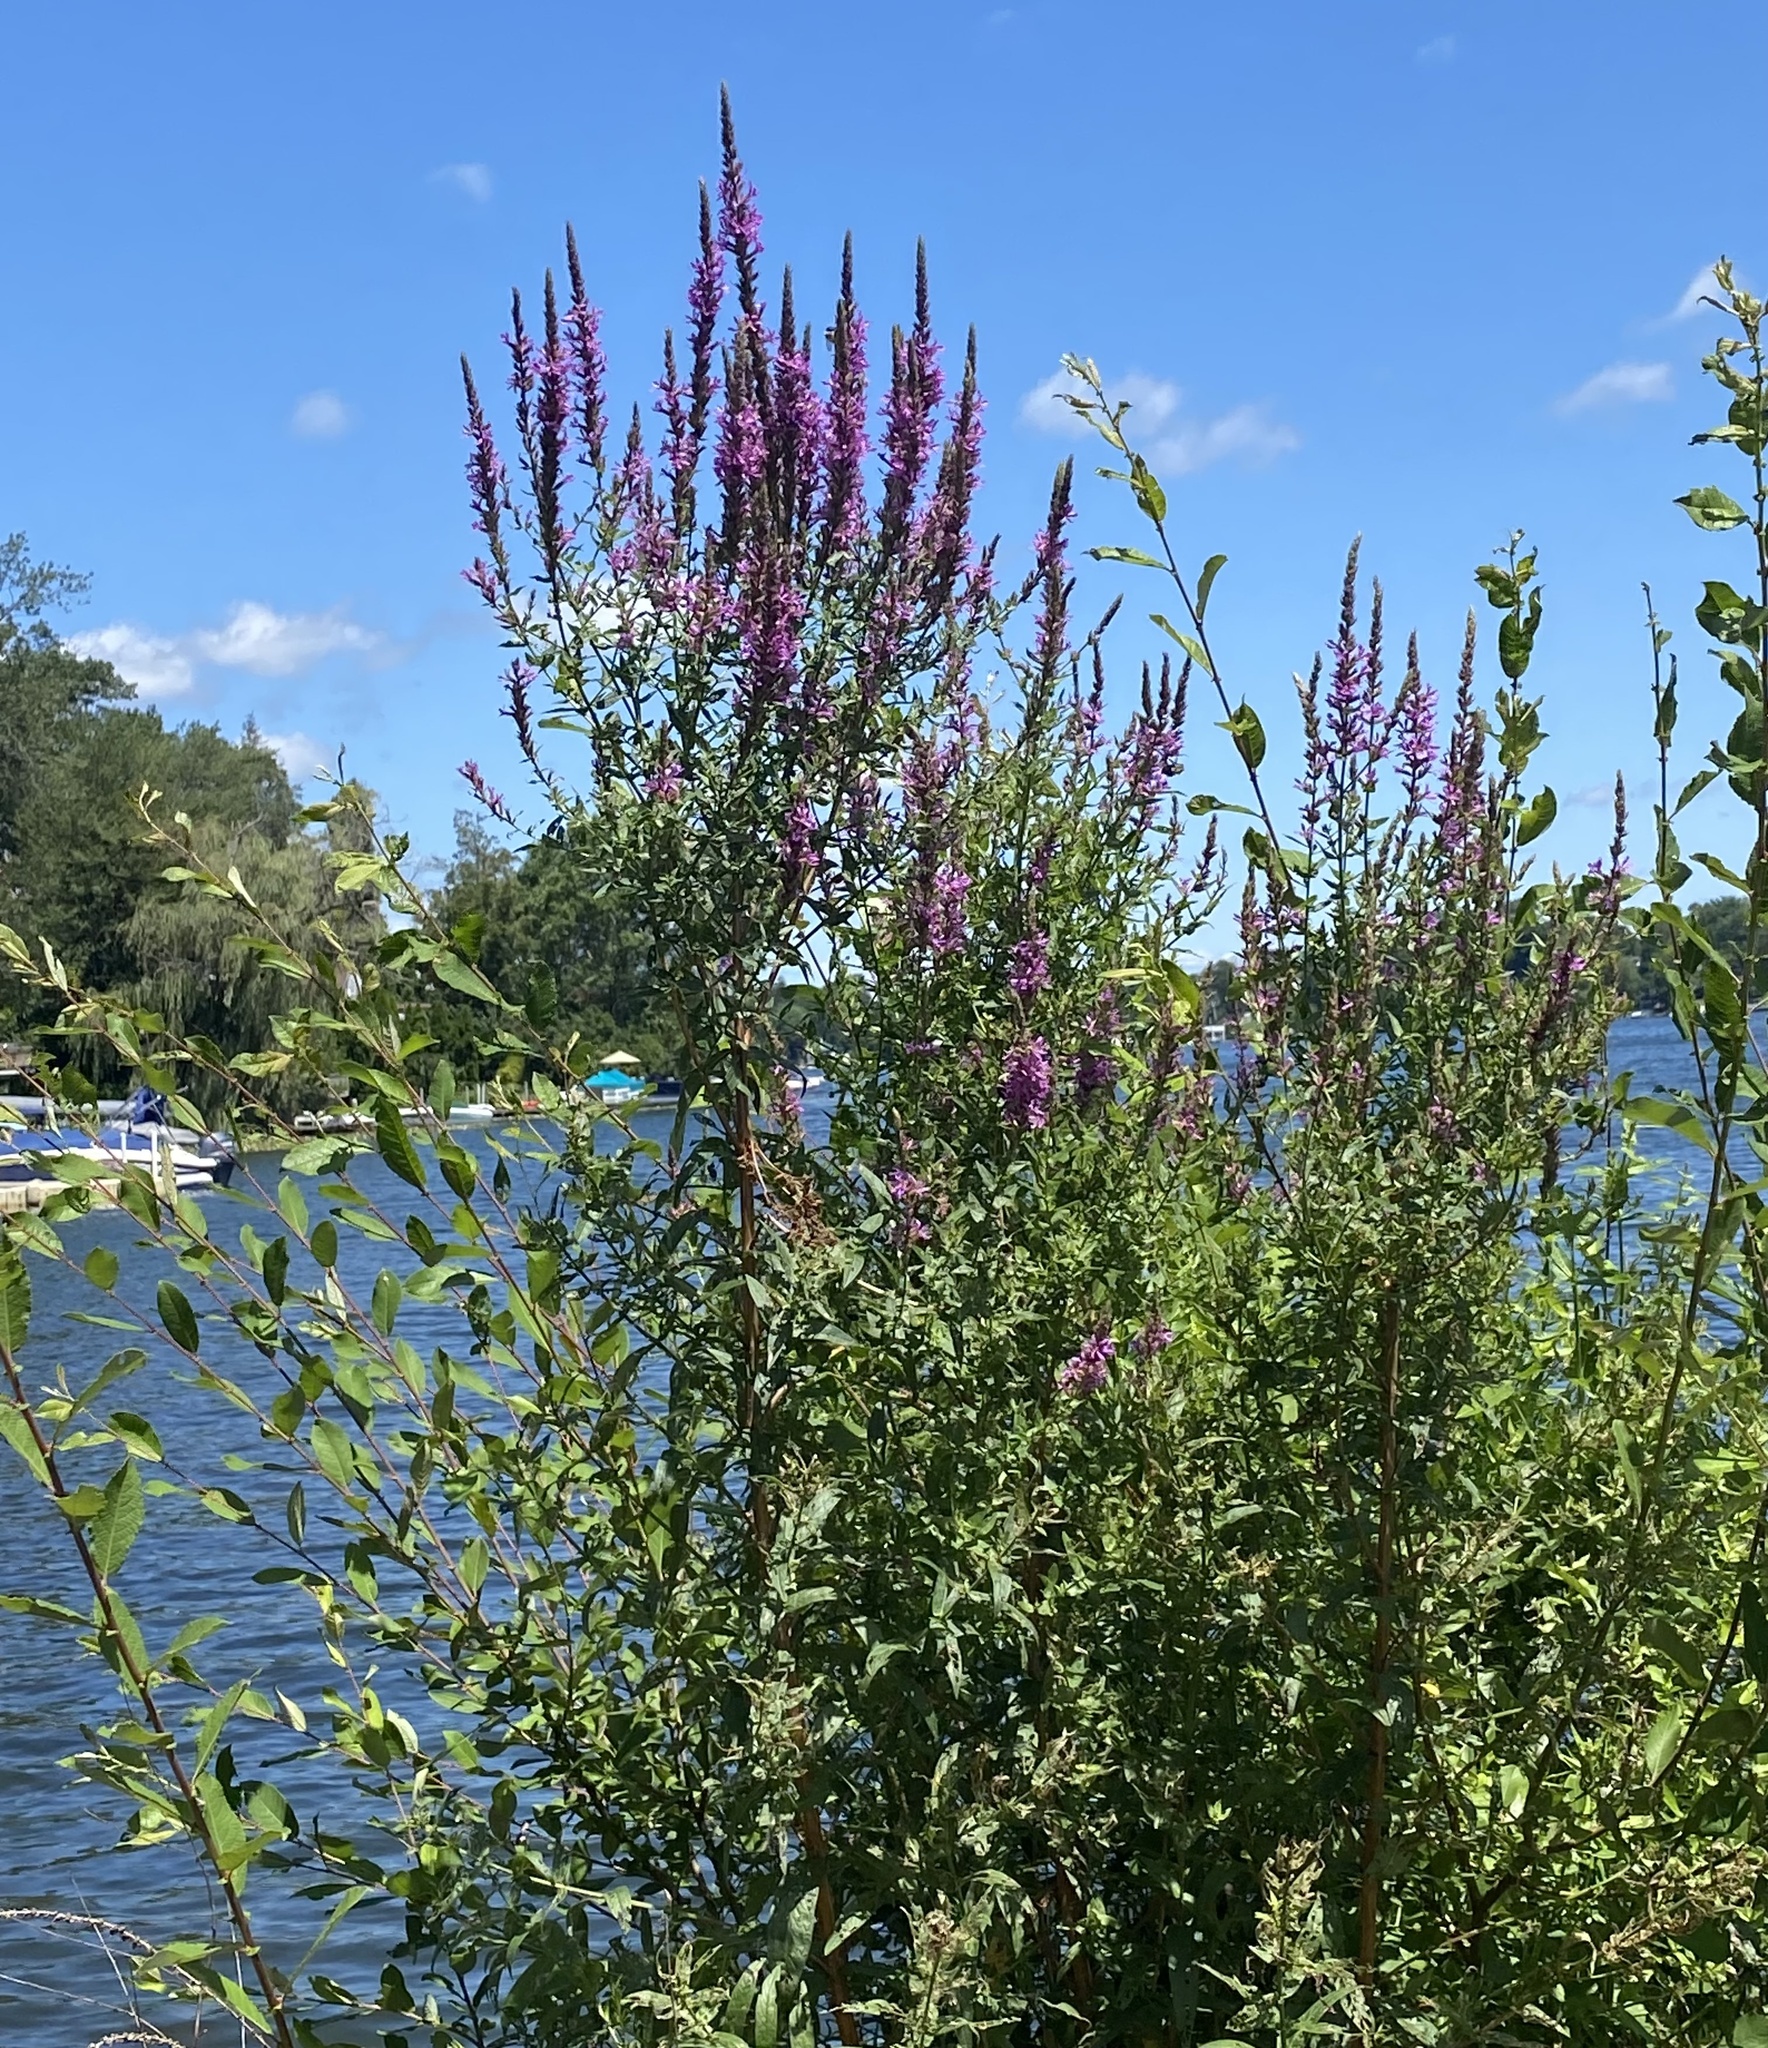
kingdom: Plantae
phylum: Tracheophyta
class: Magnoliopsida
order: Myrtales
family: Lythraceae
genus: Lythrum
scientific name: Lythrum salicaria
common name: Purple loosestrife
